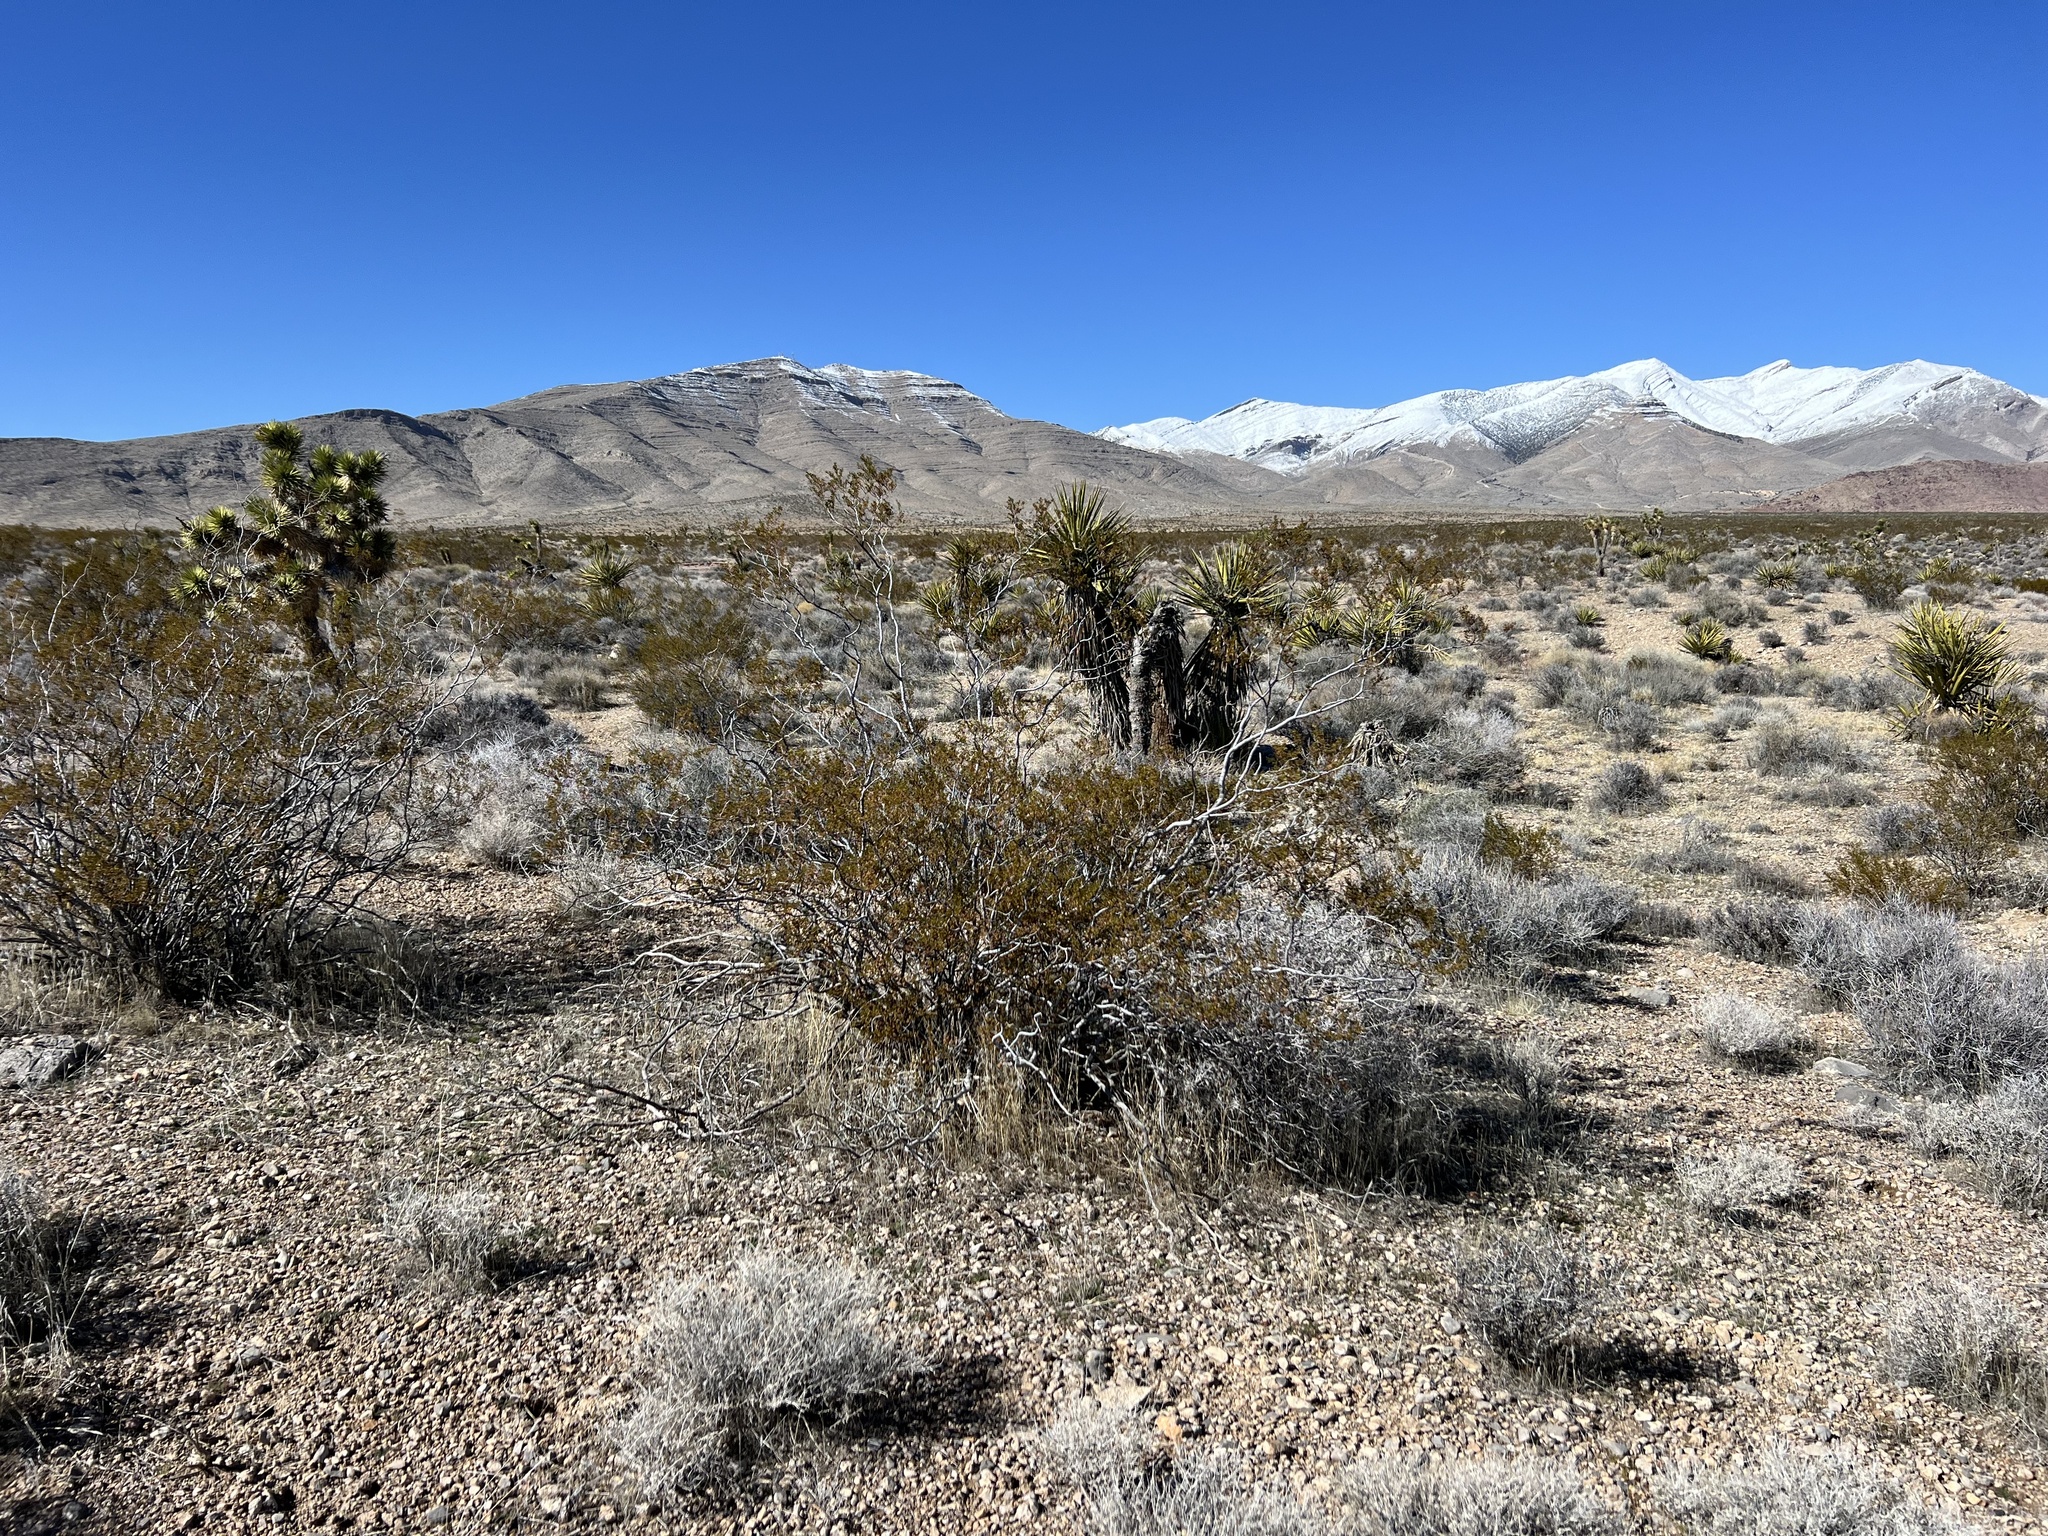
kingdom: Plantae
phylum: Tracheophyta
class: Magnoliopsida
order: Zygophyllales
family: Zygophyllaceae
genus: Larrea
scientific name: Larrea tridentata
